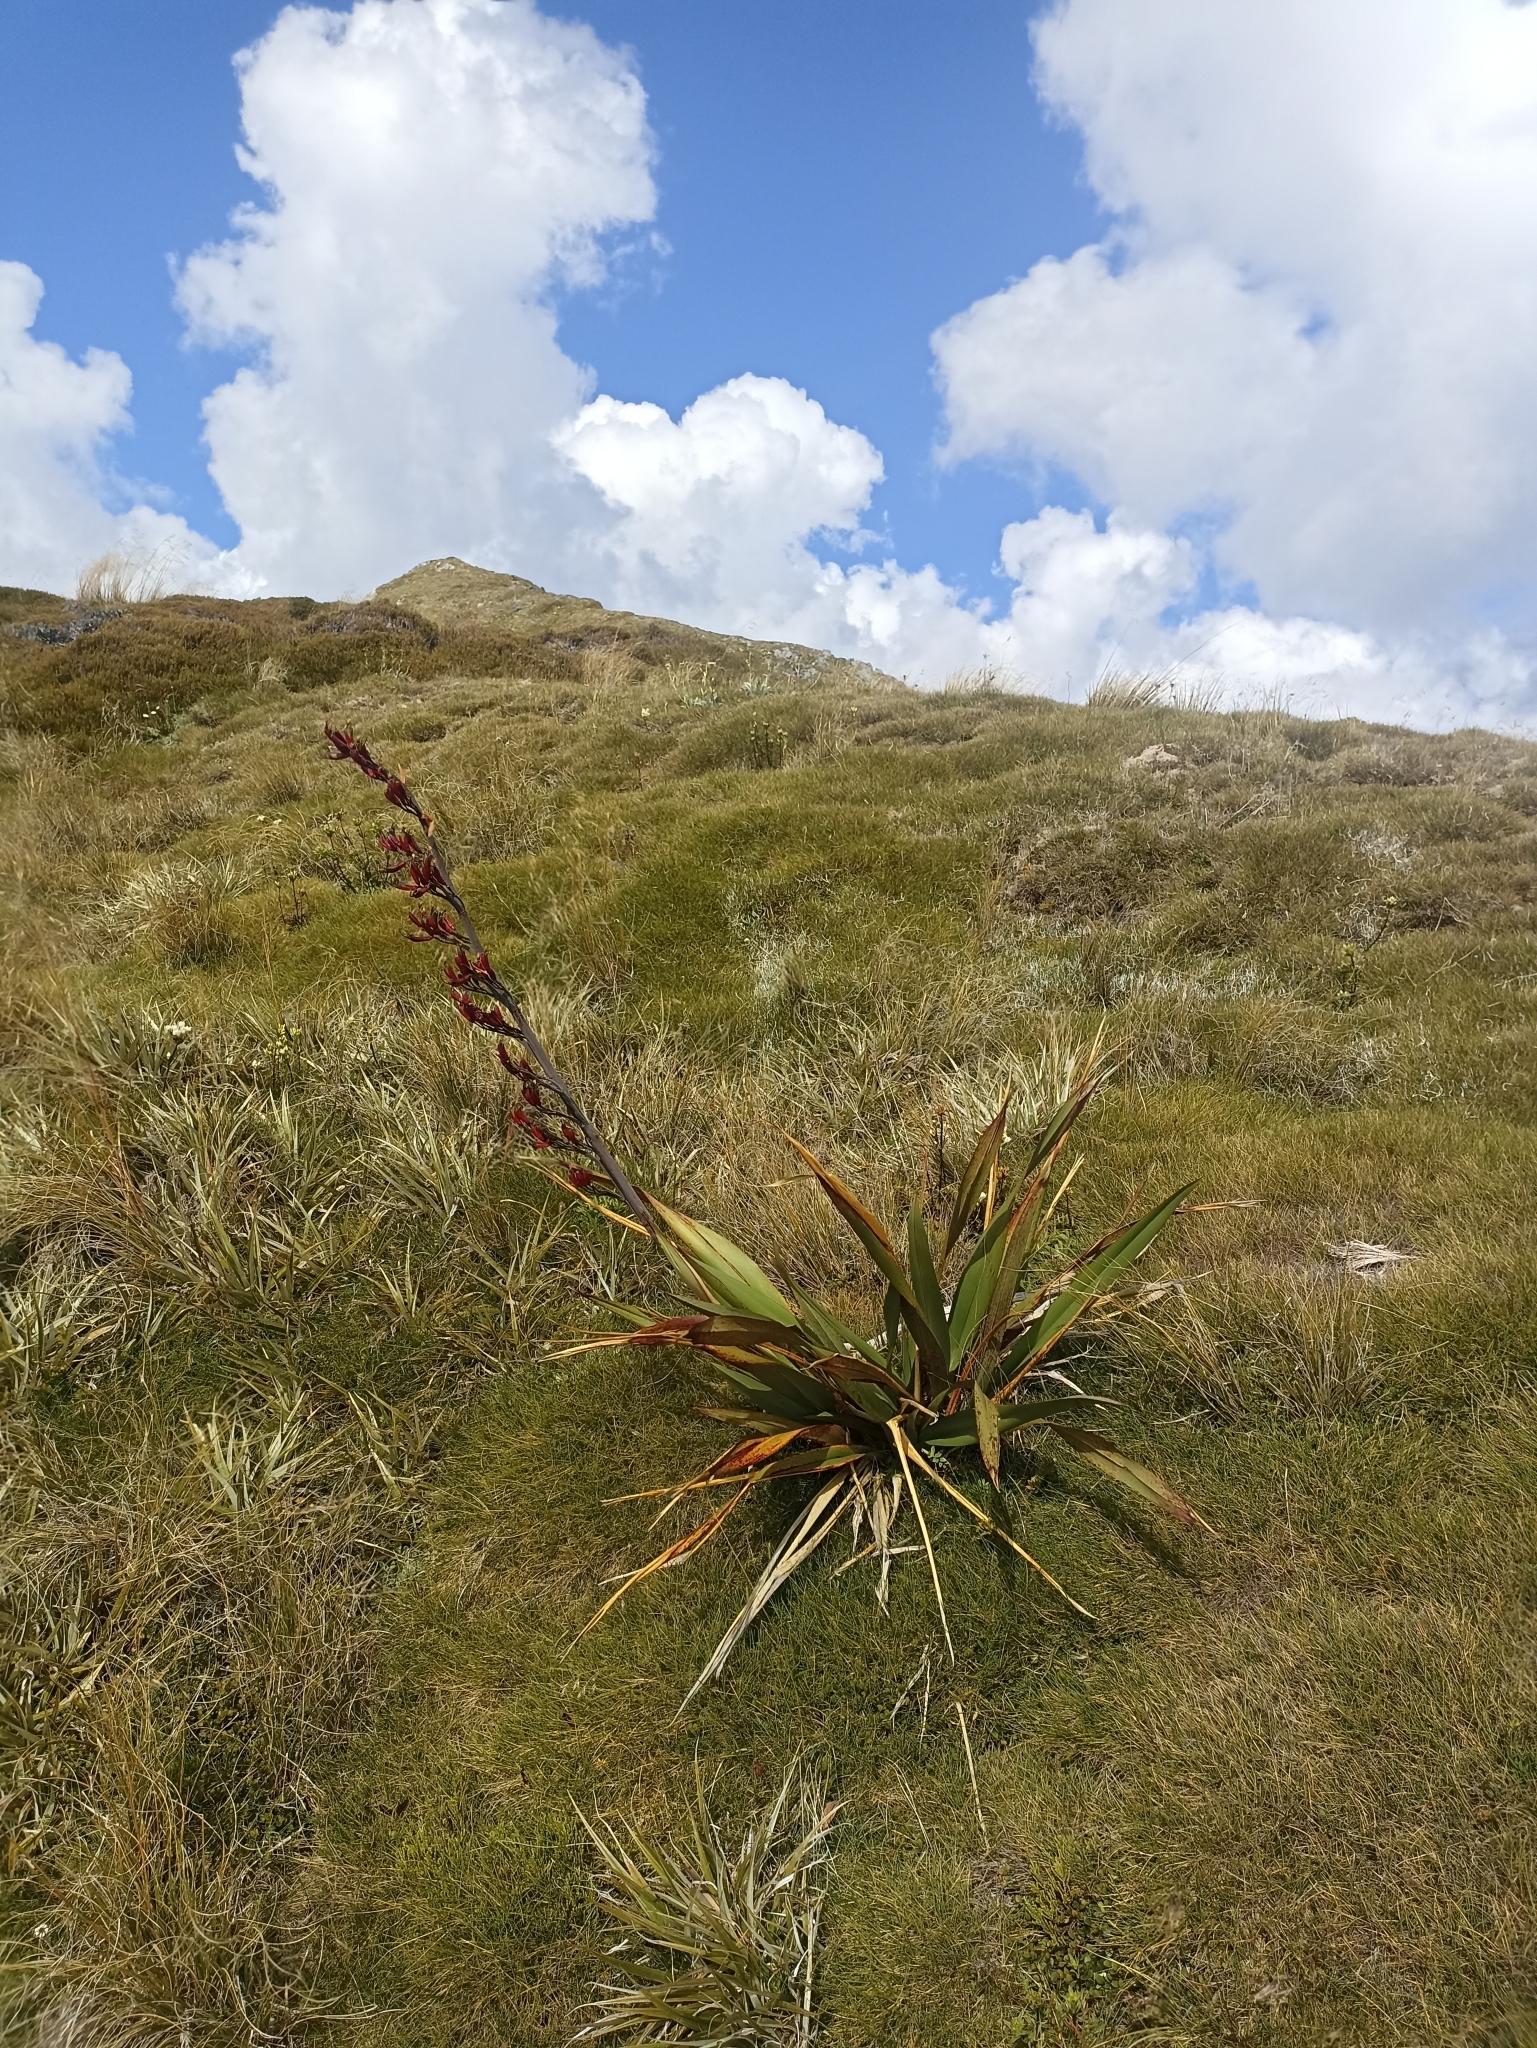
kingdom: Plantae
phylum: Tracheophyta
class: Liliopsida
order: Asparagales
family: Asphodelaceae
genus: Phormium
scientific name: Phormium colensoi
